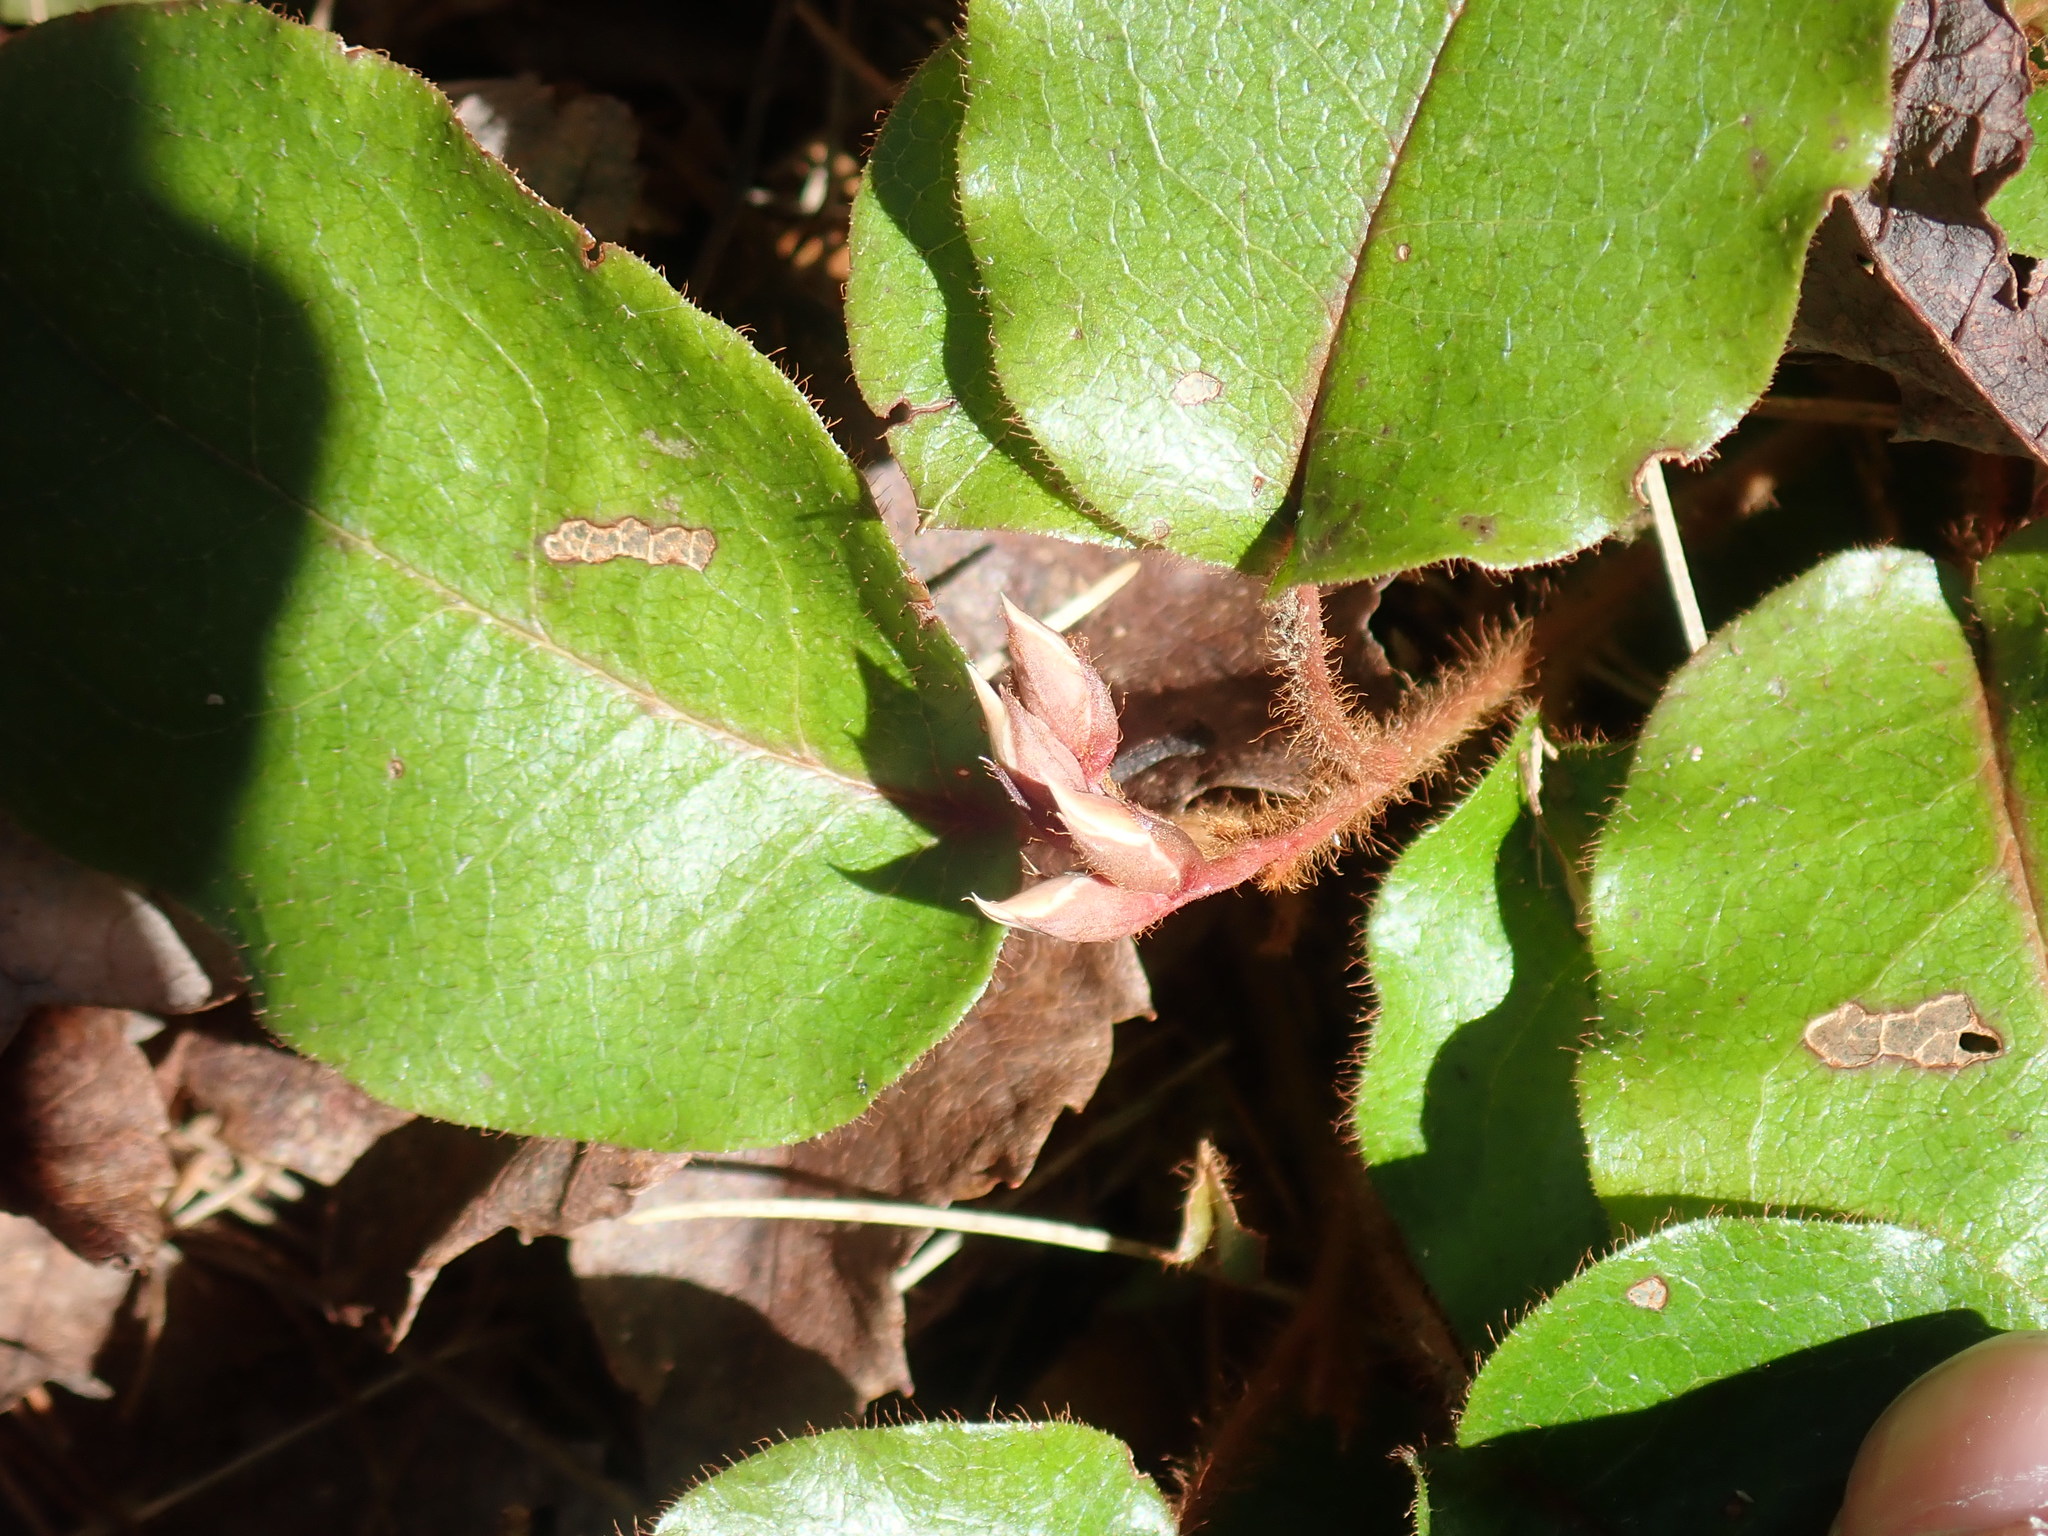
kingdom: Plantae
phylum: Tracheophyta
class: Magnoliopsida
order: Ericales
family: Ericaceae
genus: Epigaea
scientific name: Epigaea repens
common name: Gravelroot
